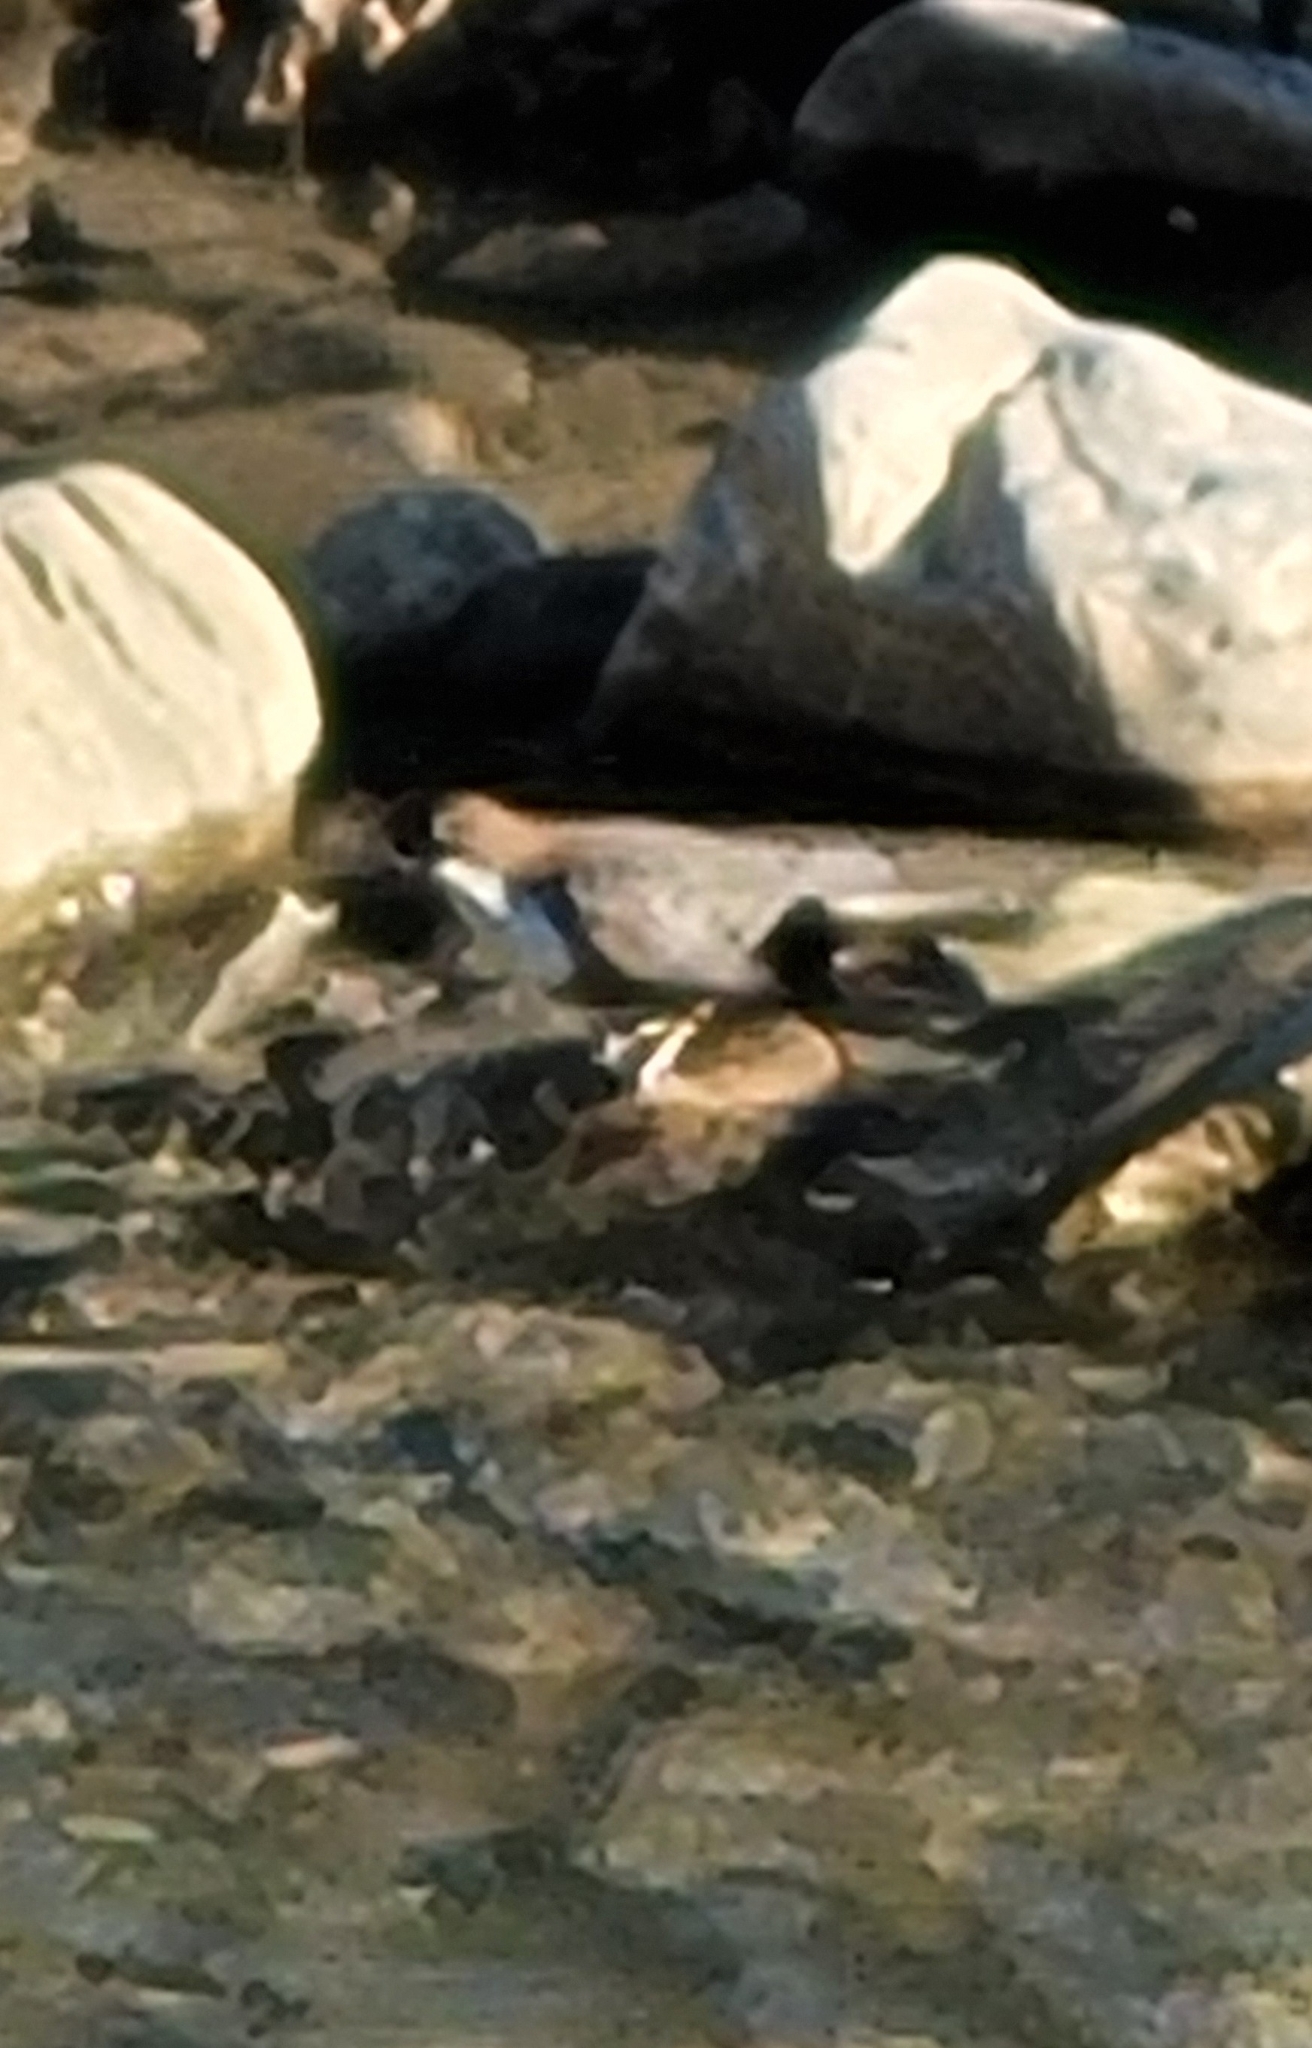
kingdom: Animalia
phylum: Chordata
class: Aves
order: Passeriformes
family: Cinclidae
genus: Cinclus
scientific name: Cinclus cinclus
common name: White-throated dipper
